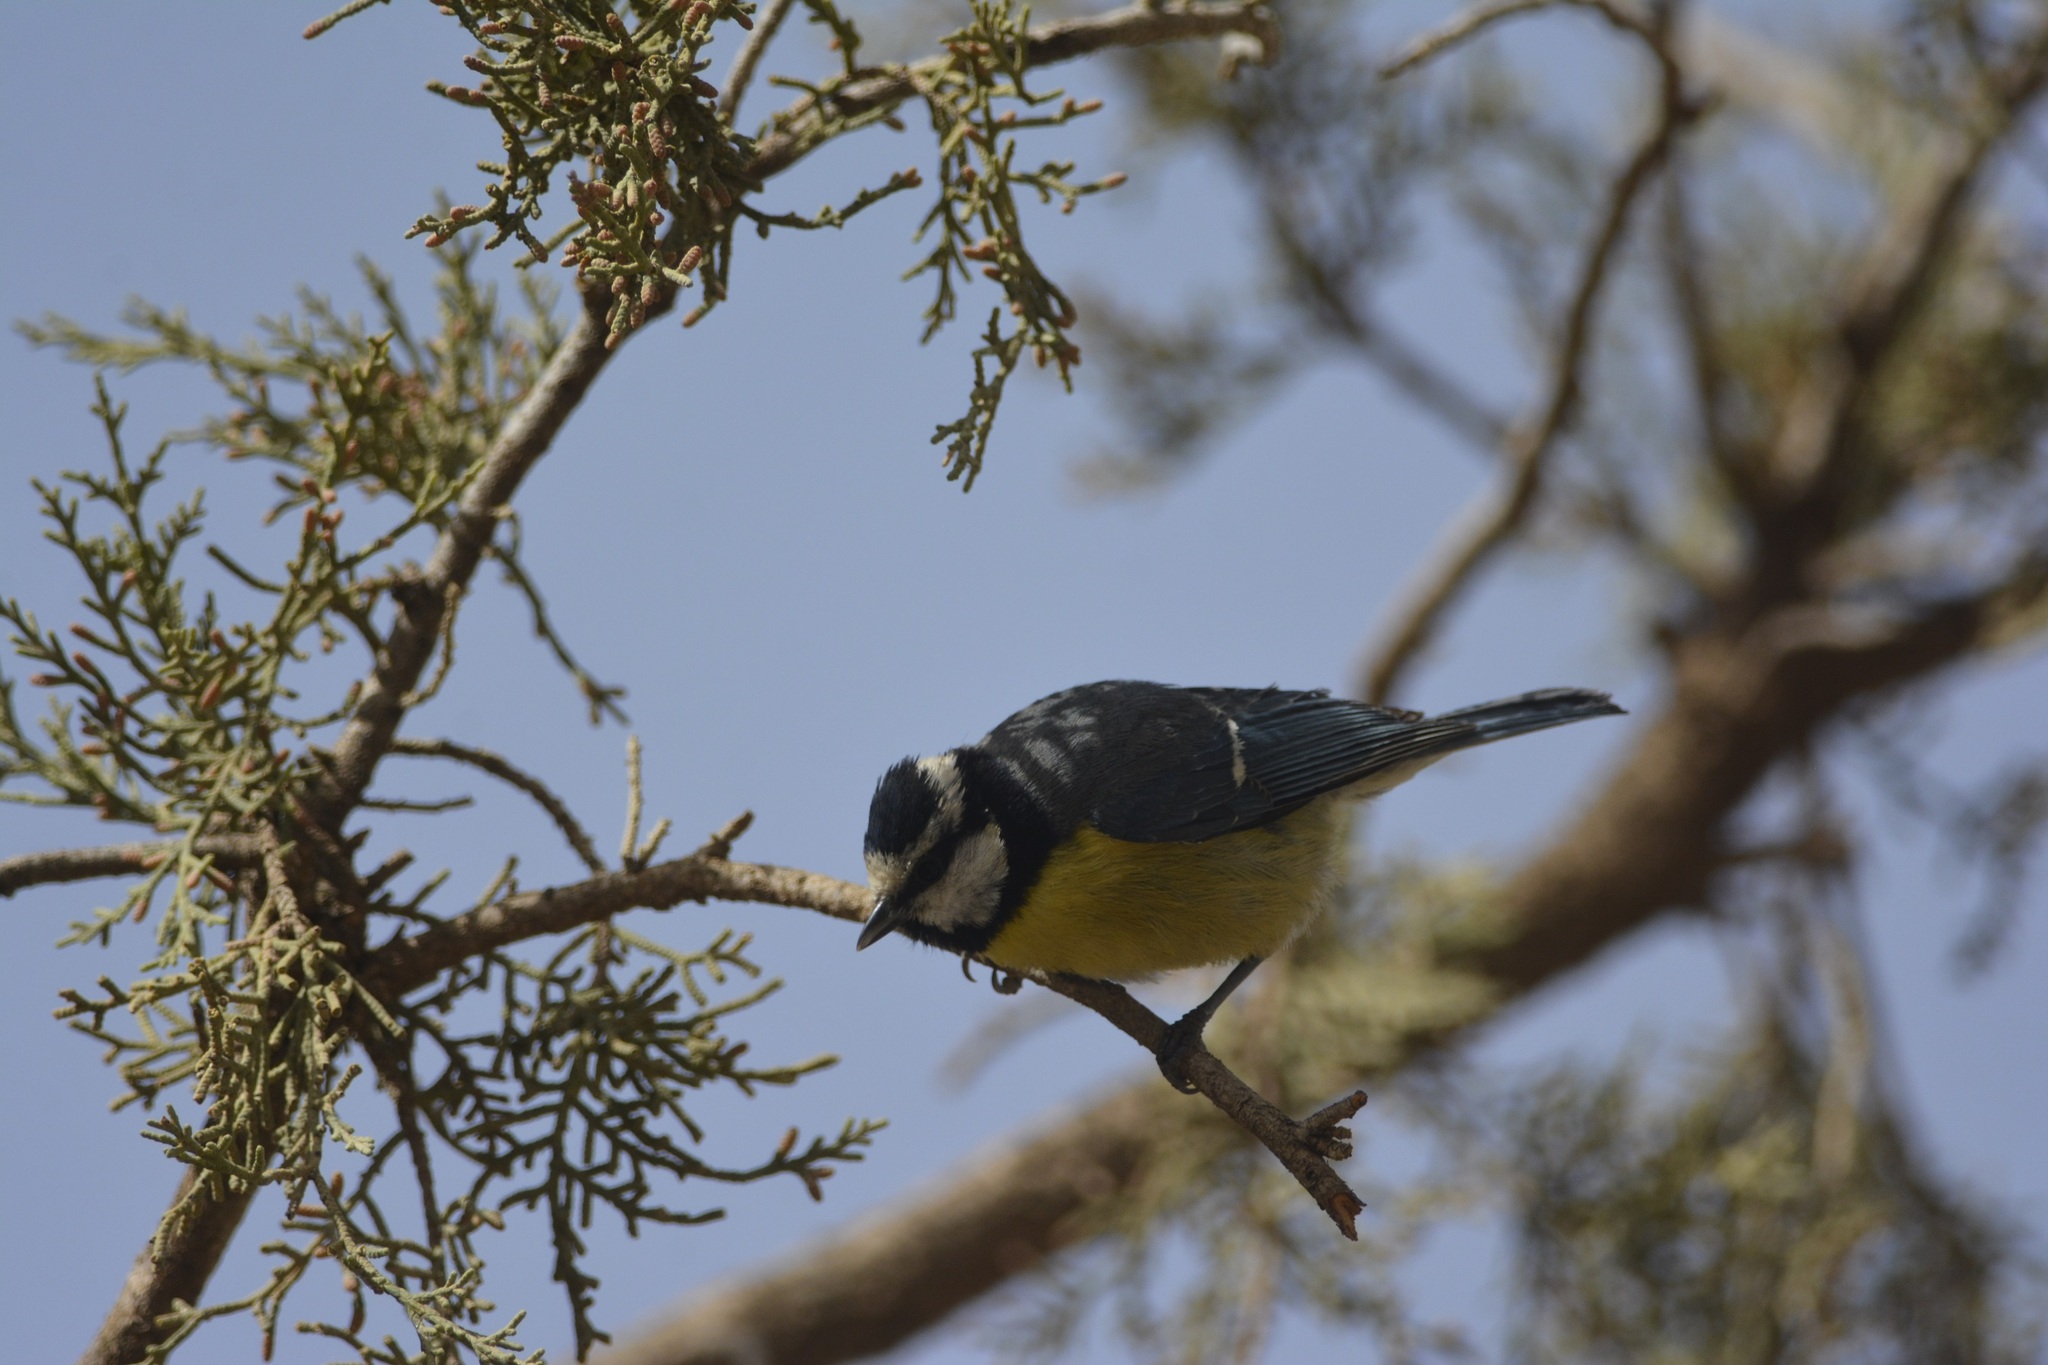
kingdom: Animalia
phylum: Chordata
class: Aves
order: Passeriformes
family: Paridae
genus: Cyanistes
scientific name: Cyanistes teneriffae
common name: African blue tit
